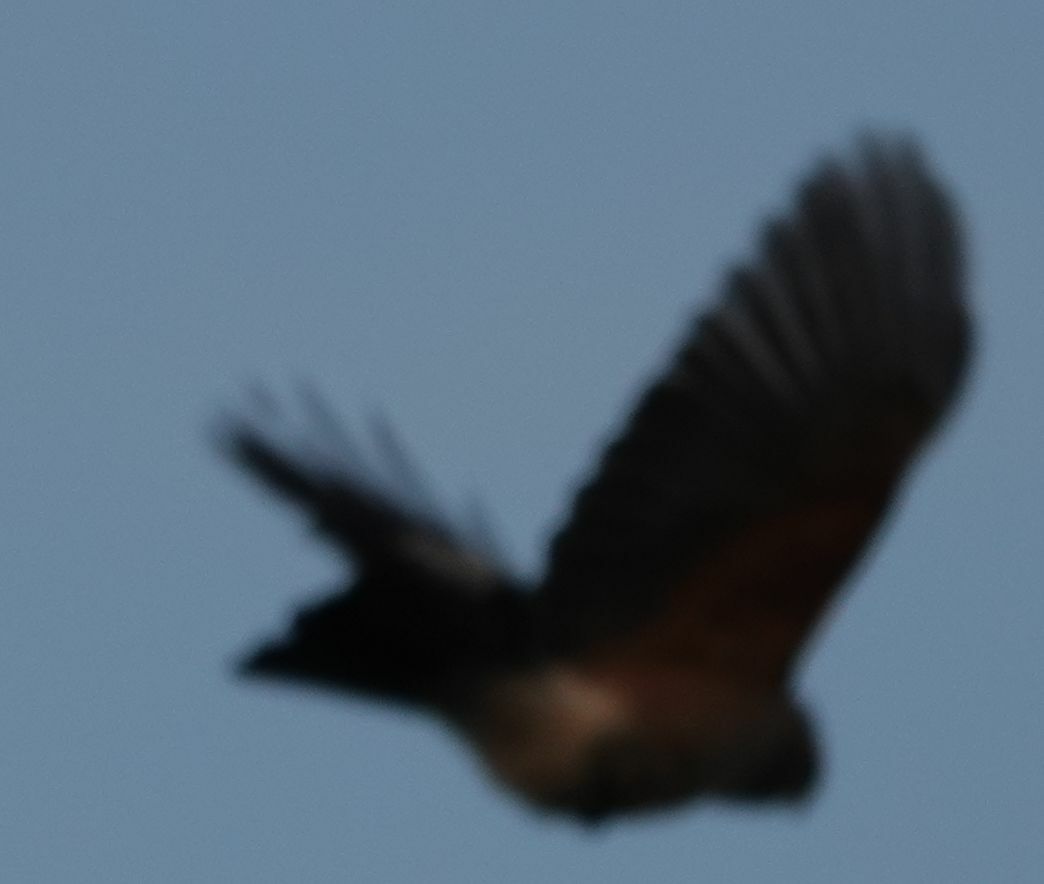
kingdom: Animalia
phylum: Chordata
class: Aves
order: Passeriformes
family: Corvidae
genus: Garrulus
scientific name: Garrulus glandarius
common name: Eurasian jay
